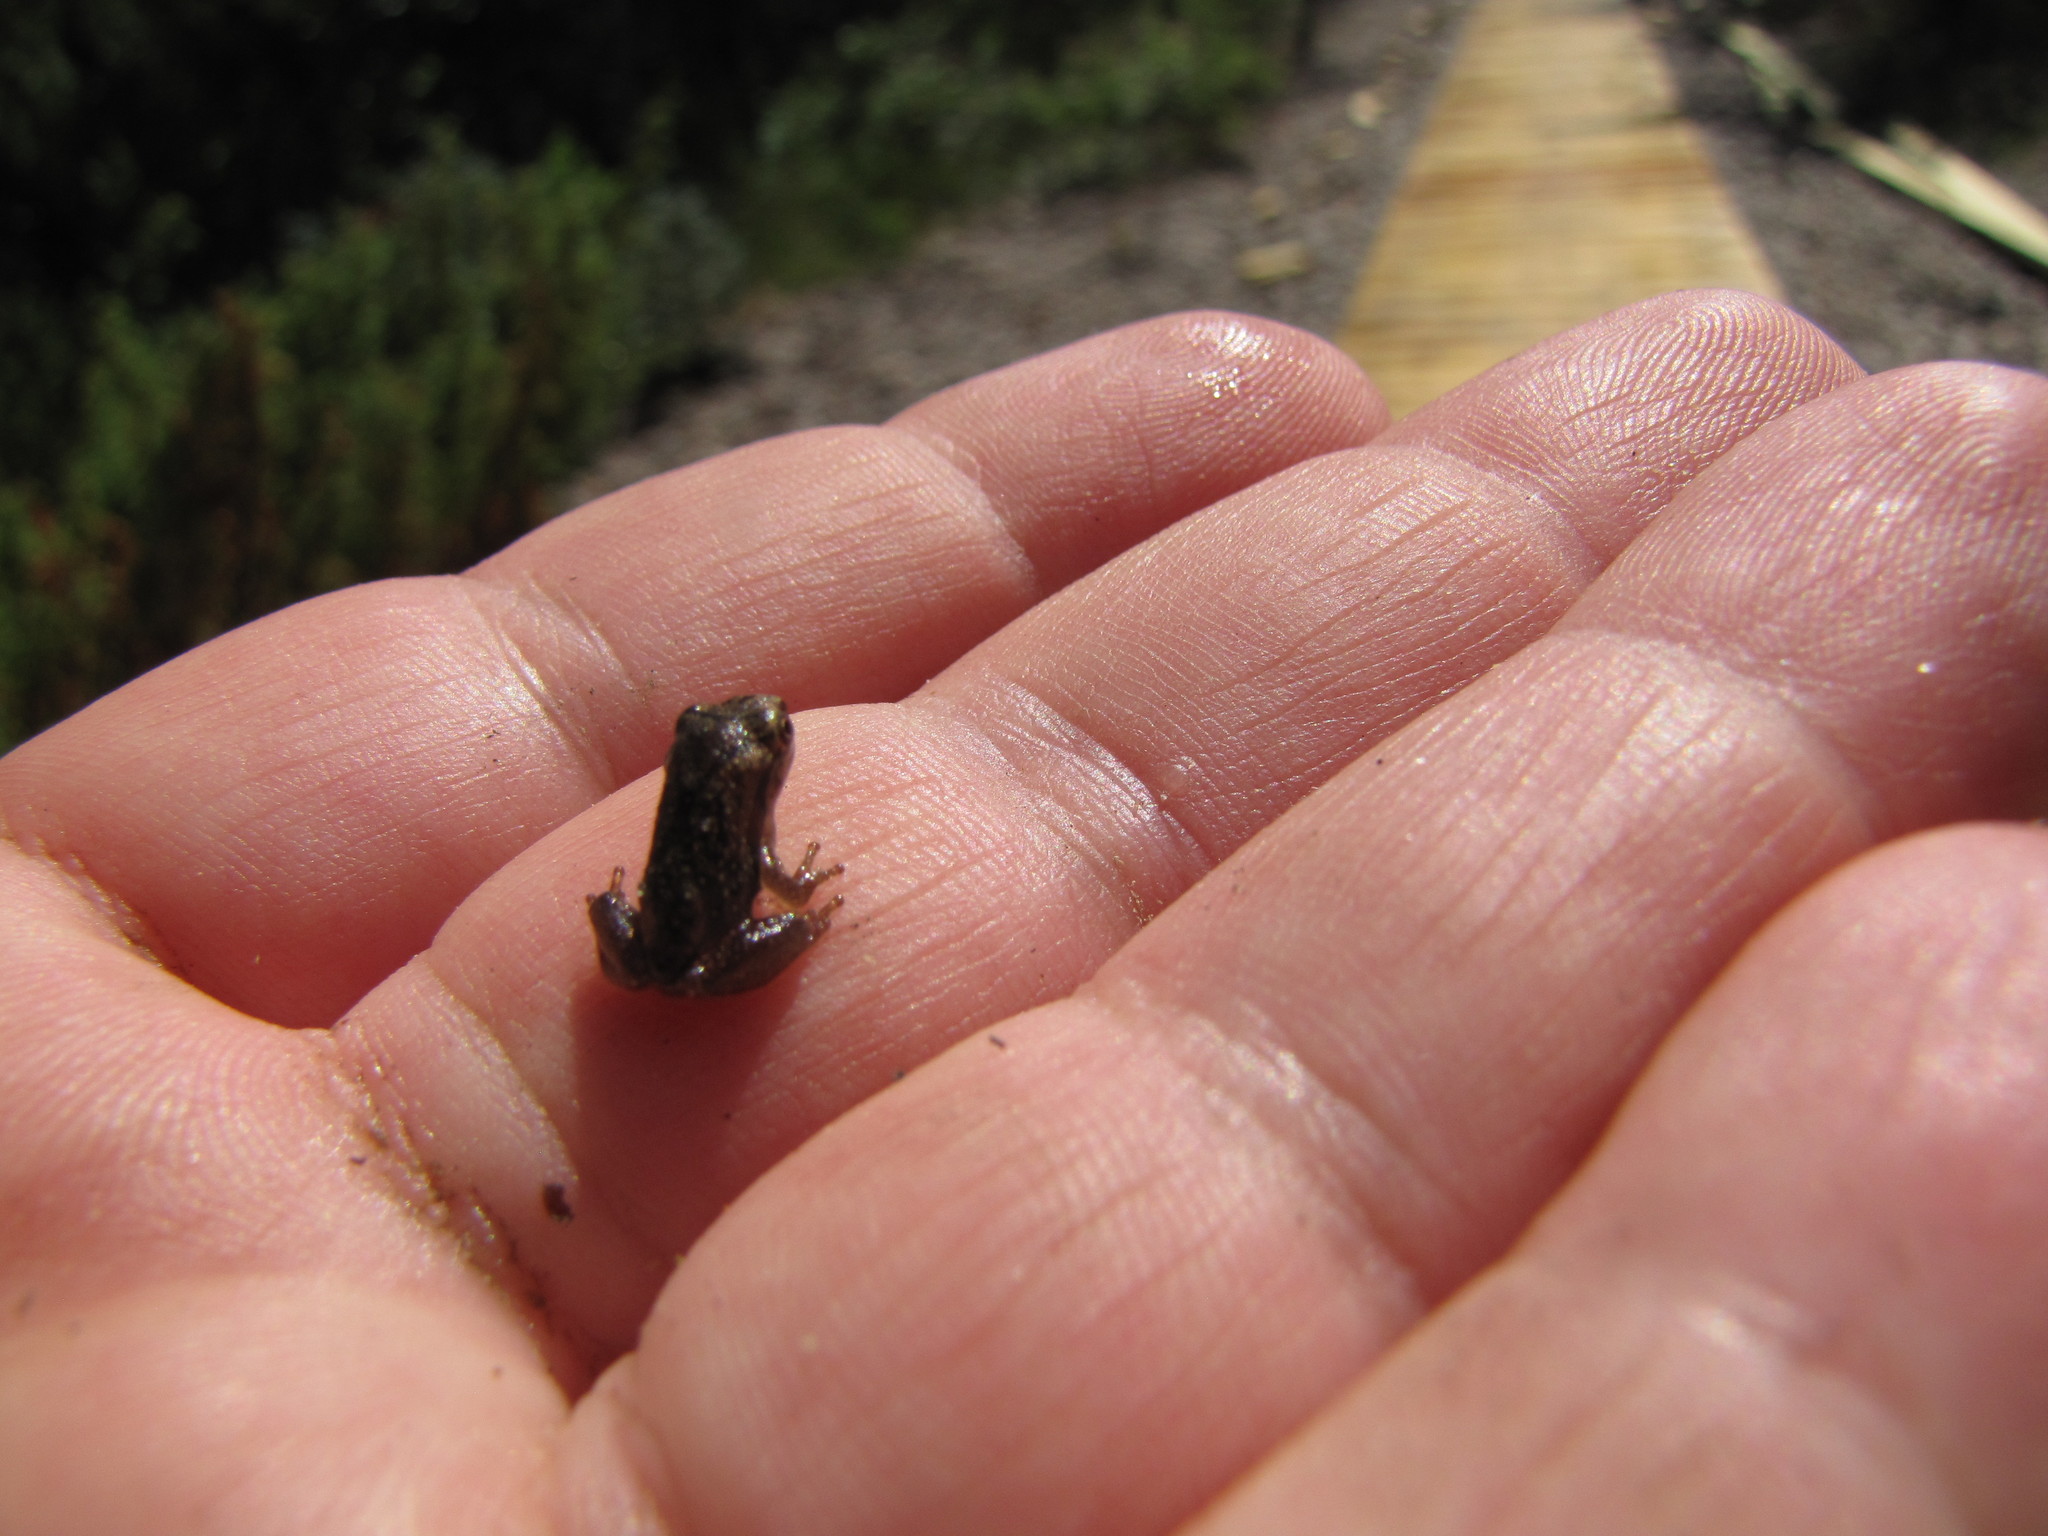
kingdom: Animalia
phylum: Chordata
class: Amphibia
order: Anura
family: Hylidae
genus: Pseudacris
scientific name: Pseudacris crucifer
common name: Spring peeper
